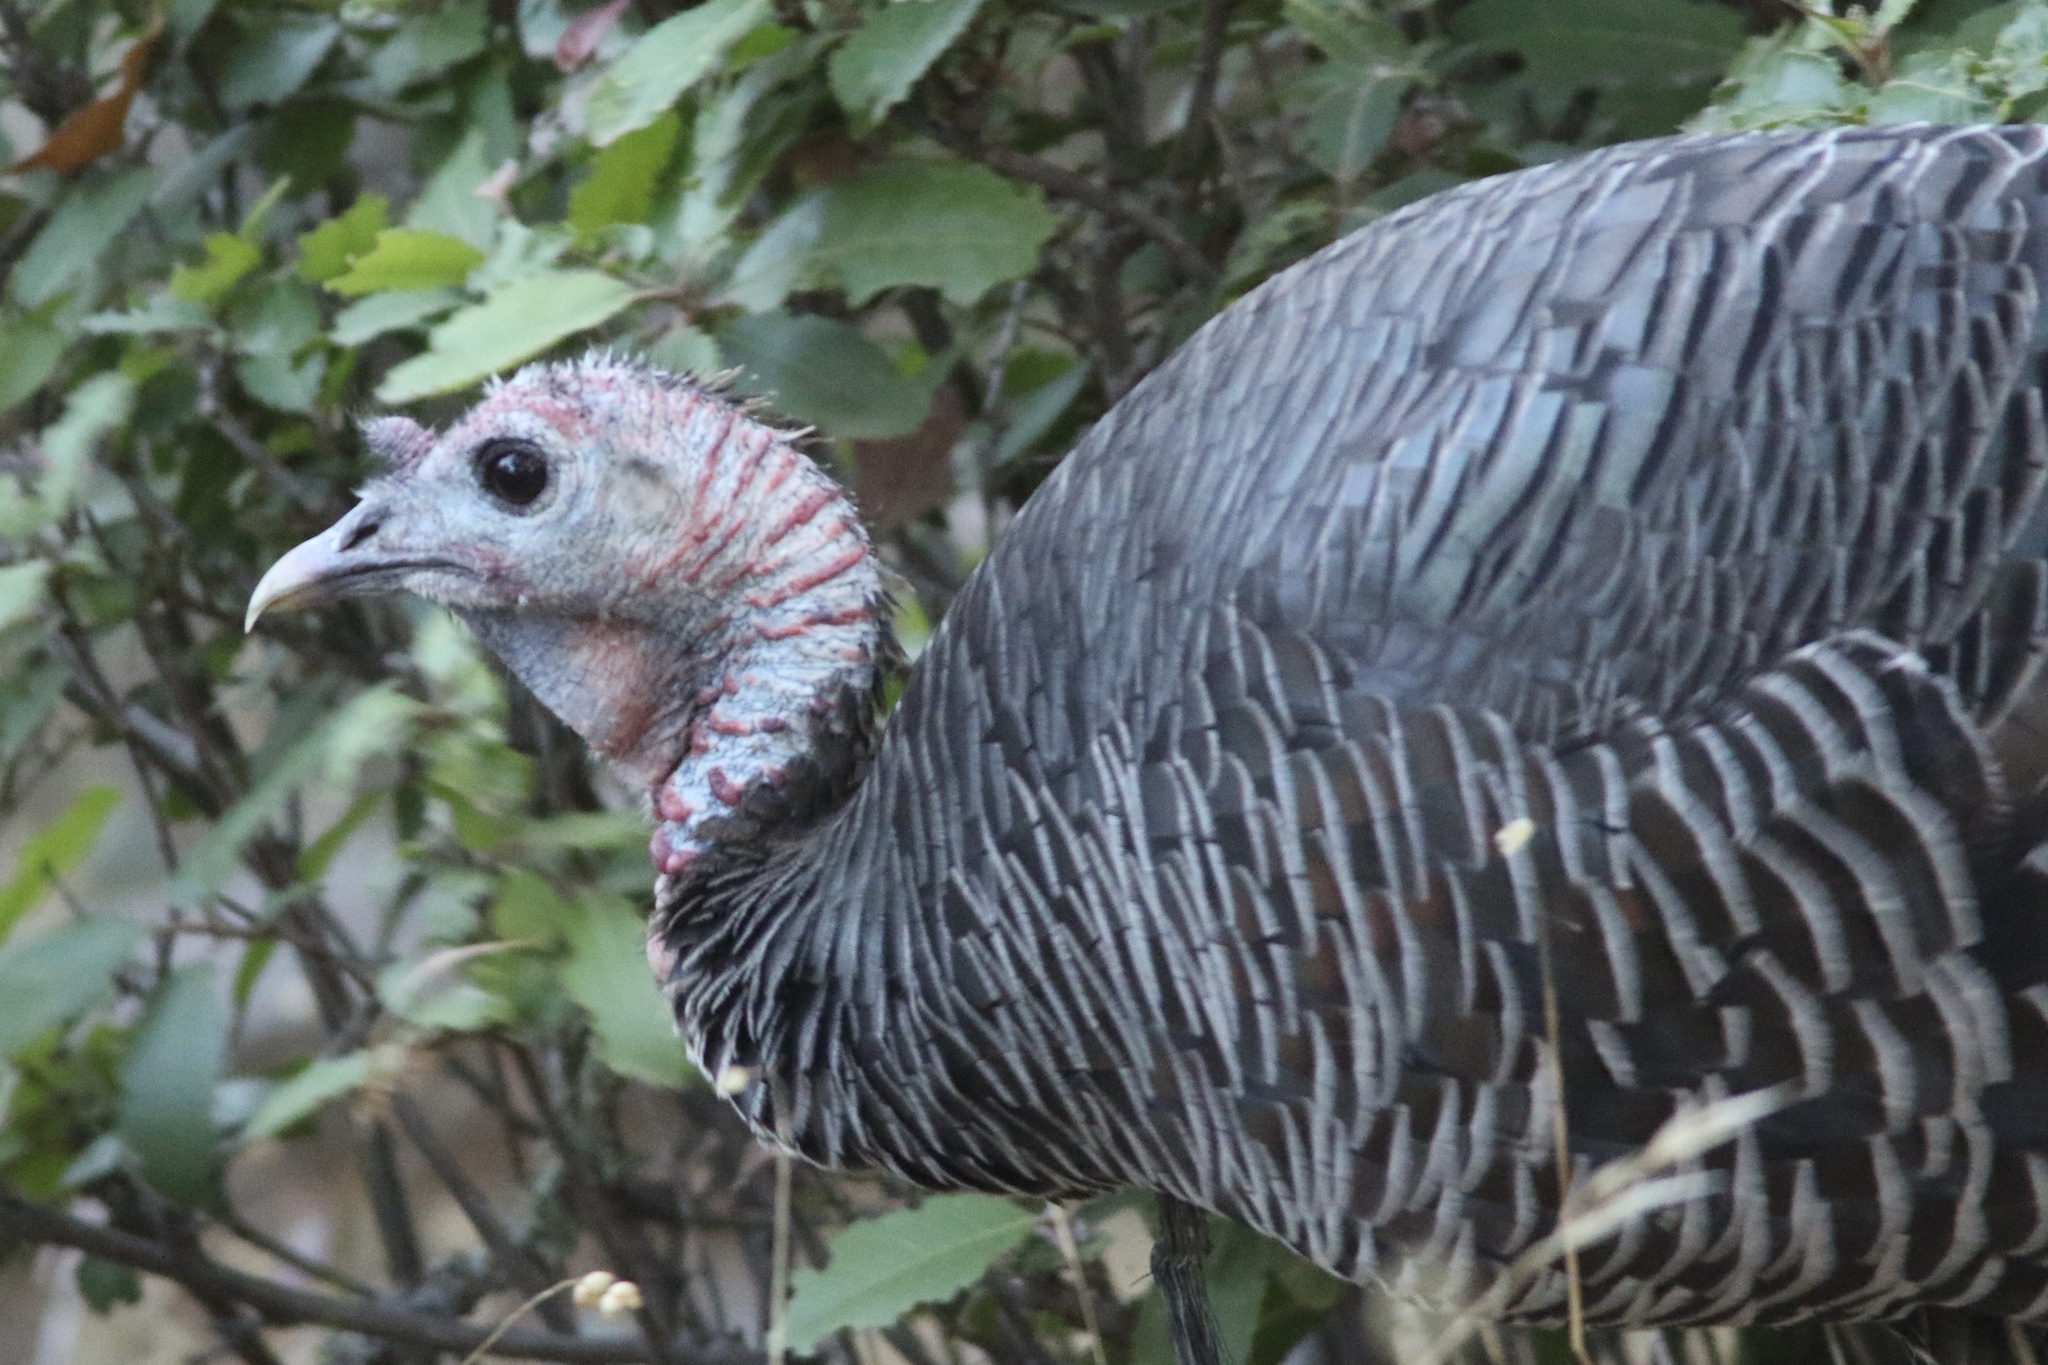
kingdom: Animalia
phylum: Chordata
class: Aves
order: Galliformes
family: Phasianidae
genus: Meleagris
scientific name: Meleagris gallopavo
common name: Wild turkey
